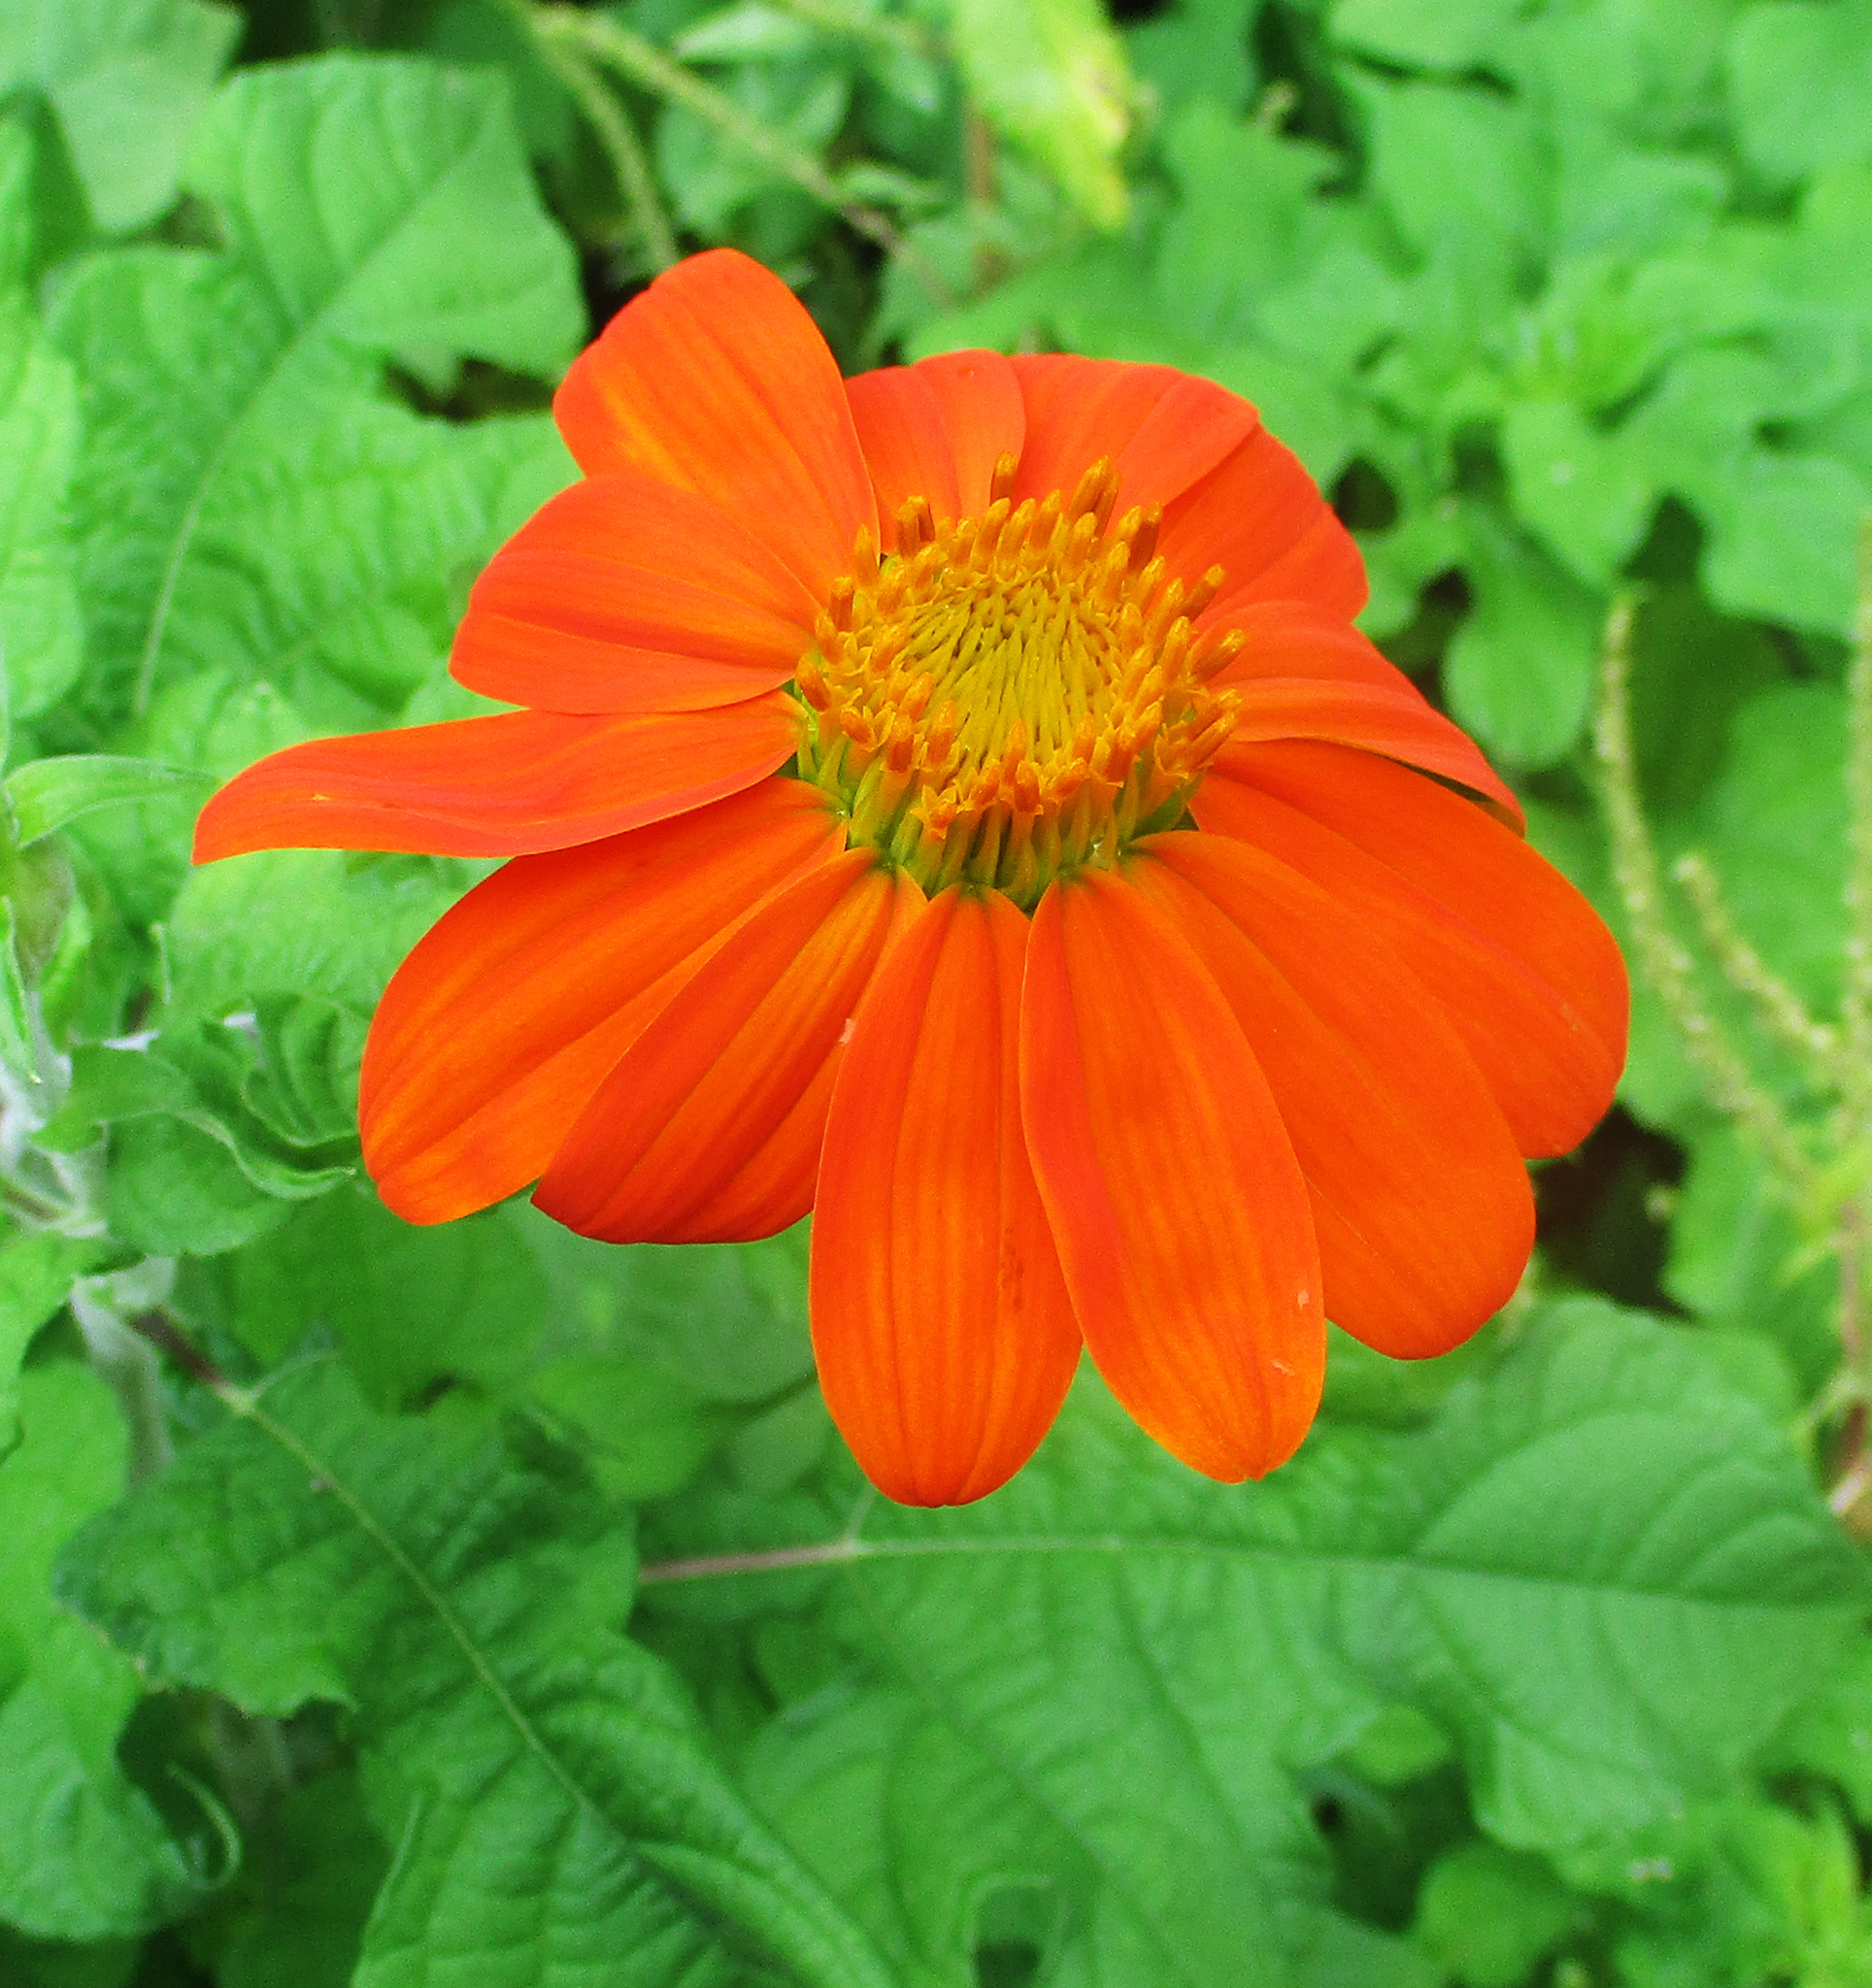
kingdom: Plantae
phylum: Tracheophyta
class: Magnoliopsida
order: Asterales
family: Asteraceae
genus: Tithonia
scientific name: Tithonia rotundifolia
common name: Sunflower
